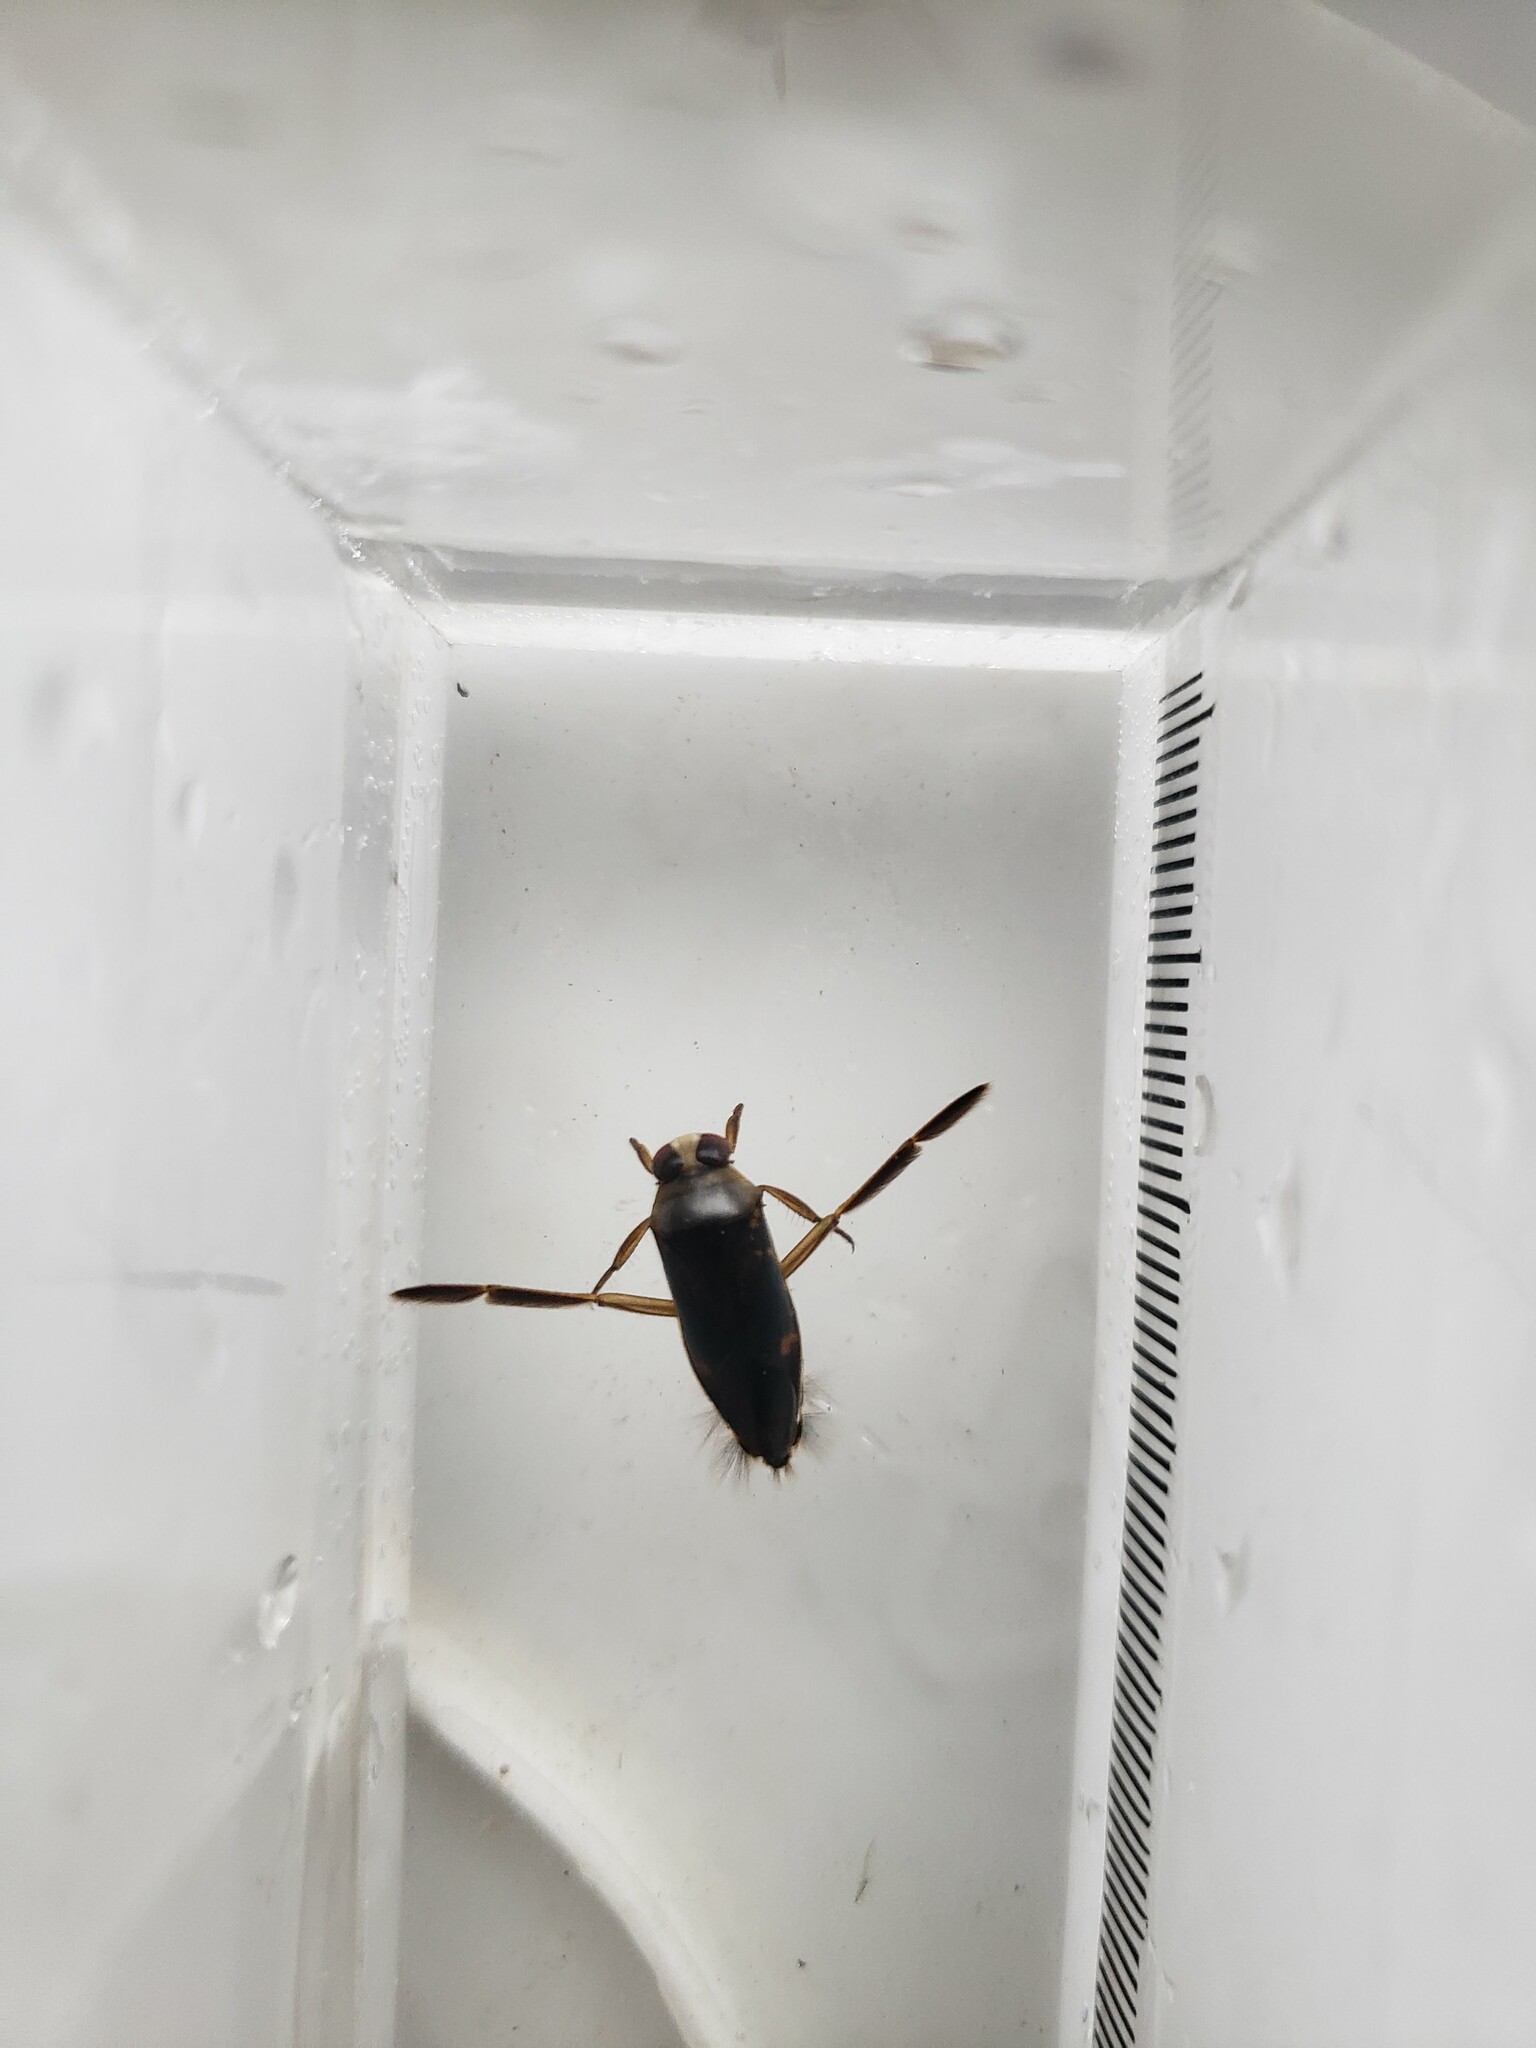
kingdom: Animalia
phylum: Arthropoda
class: Insecta
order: Hemiptera
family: Notonectidae
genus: Notonecta
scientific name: Notonecta irrorata
